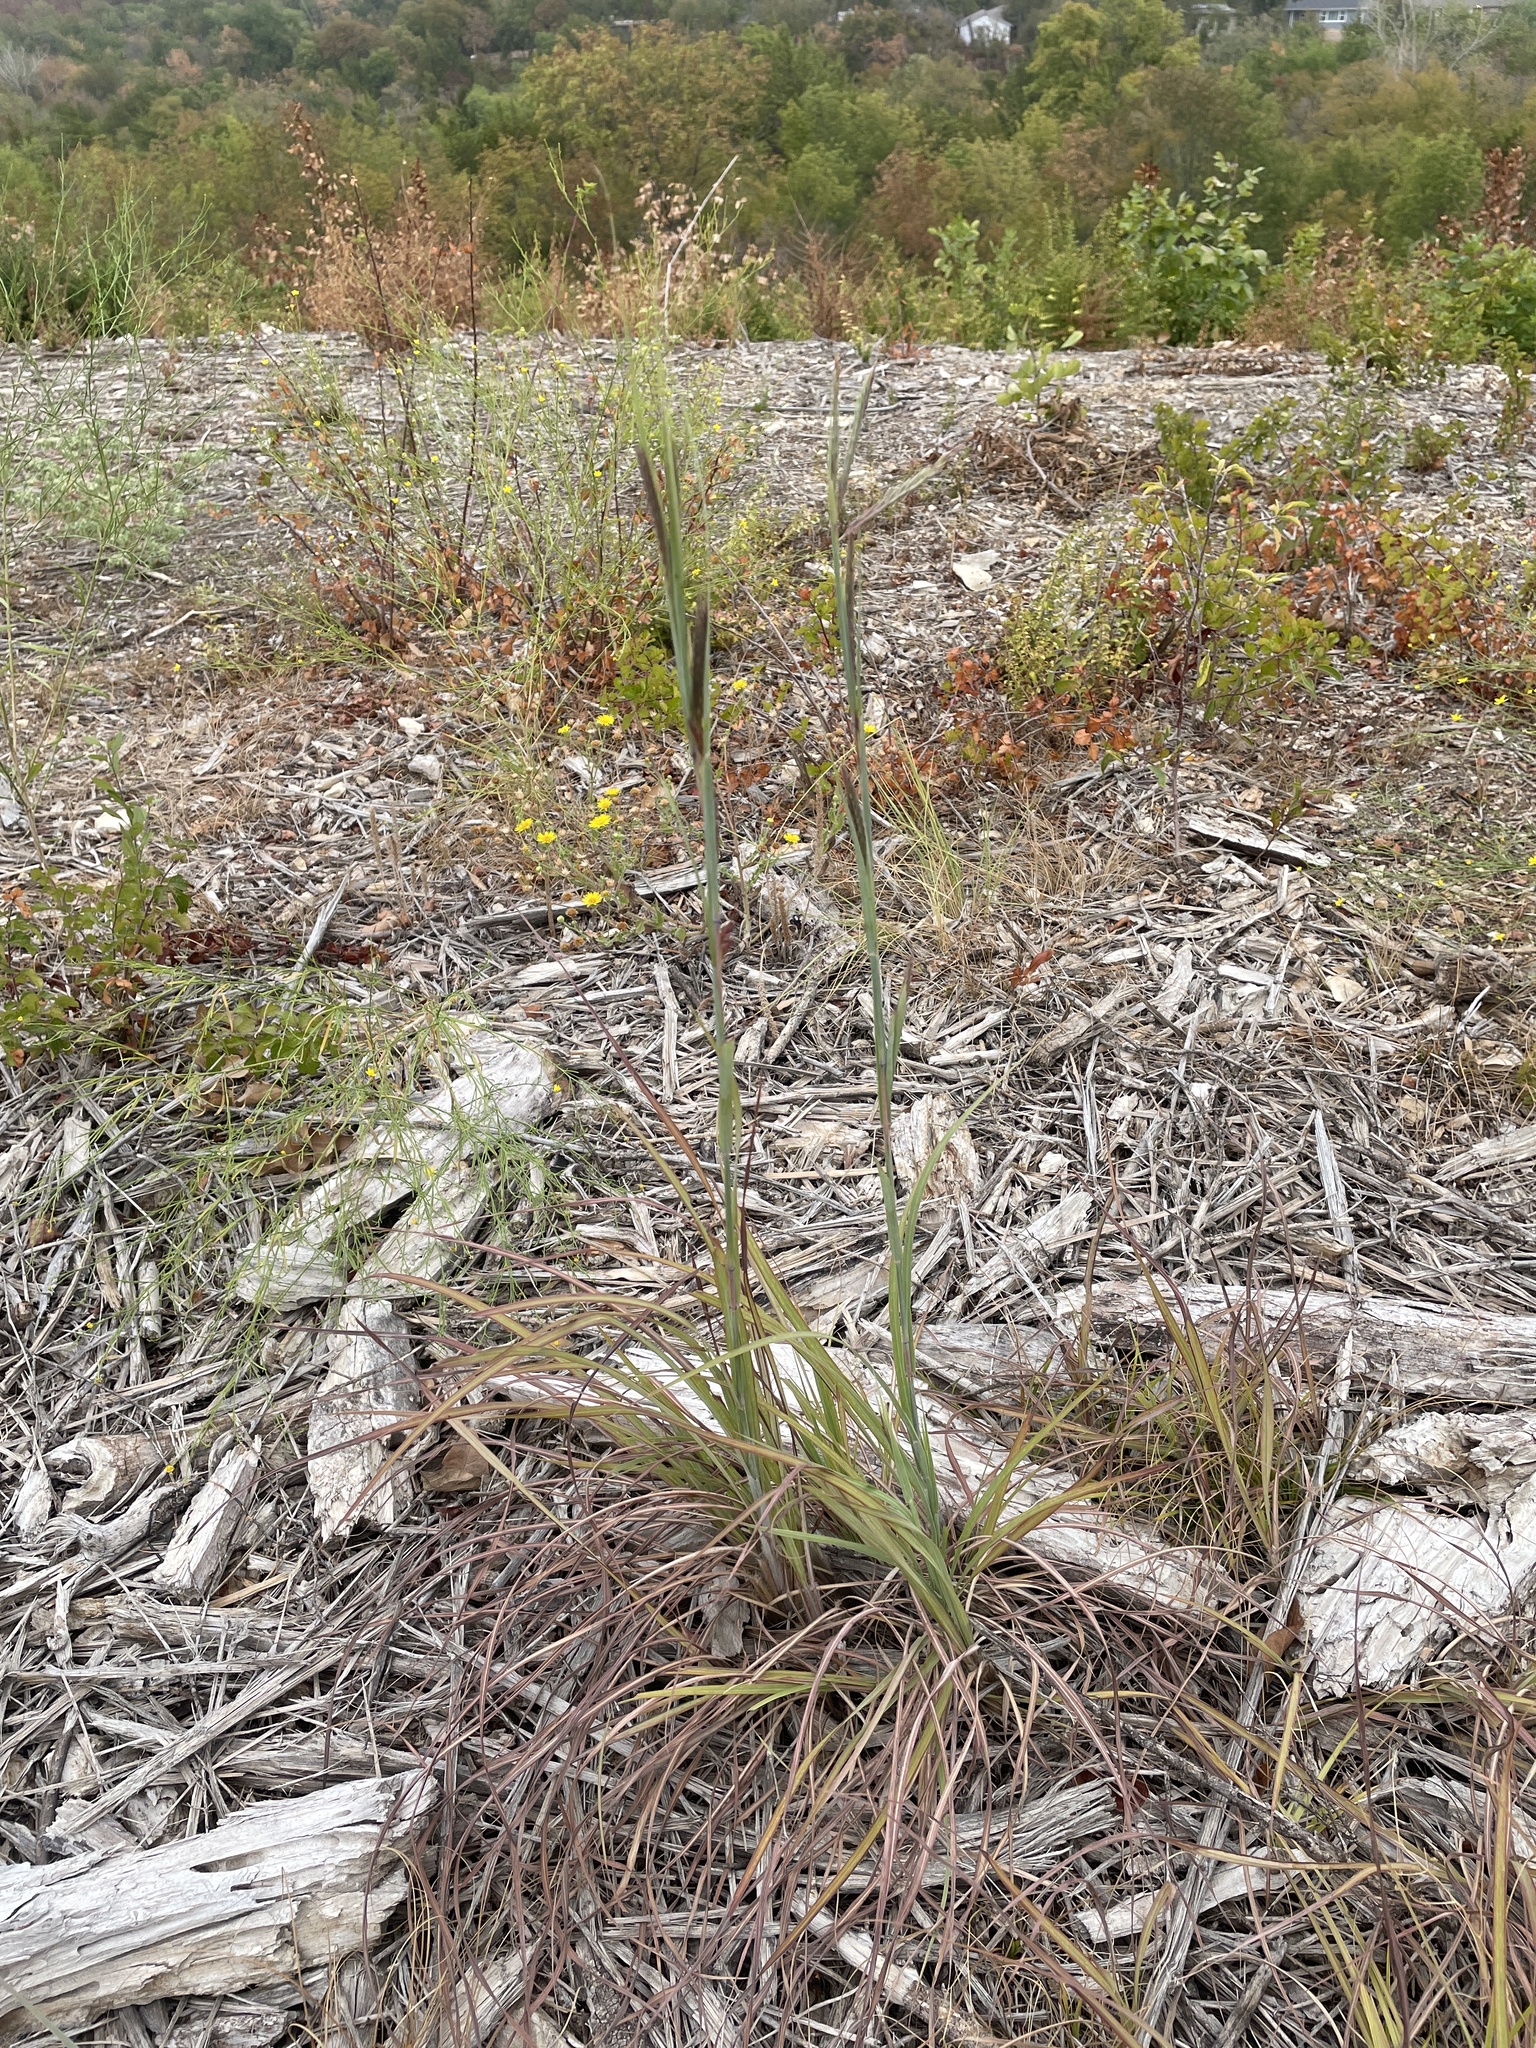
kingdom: Plantae
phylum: Tracheophyta
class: Liliopsida
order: Poales
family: Poaceae
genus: Andropogon
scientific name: Andropogon gerardi
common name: Big bluestem
